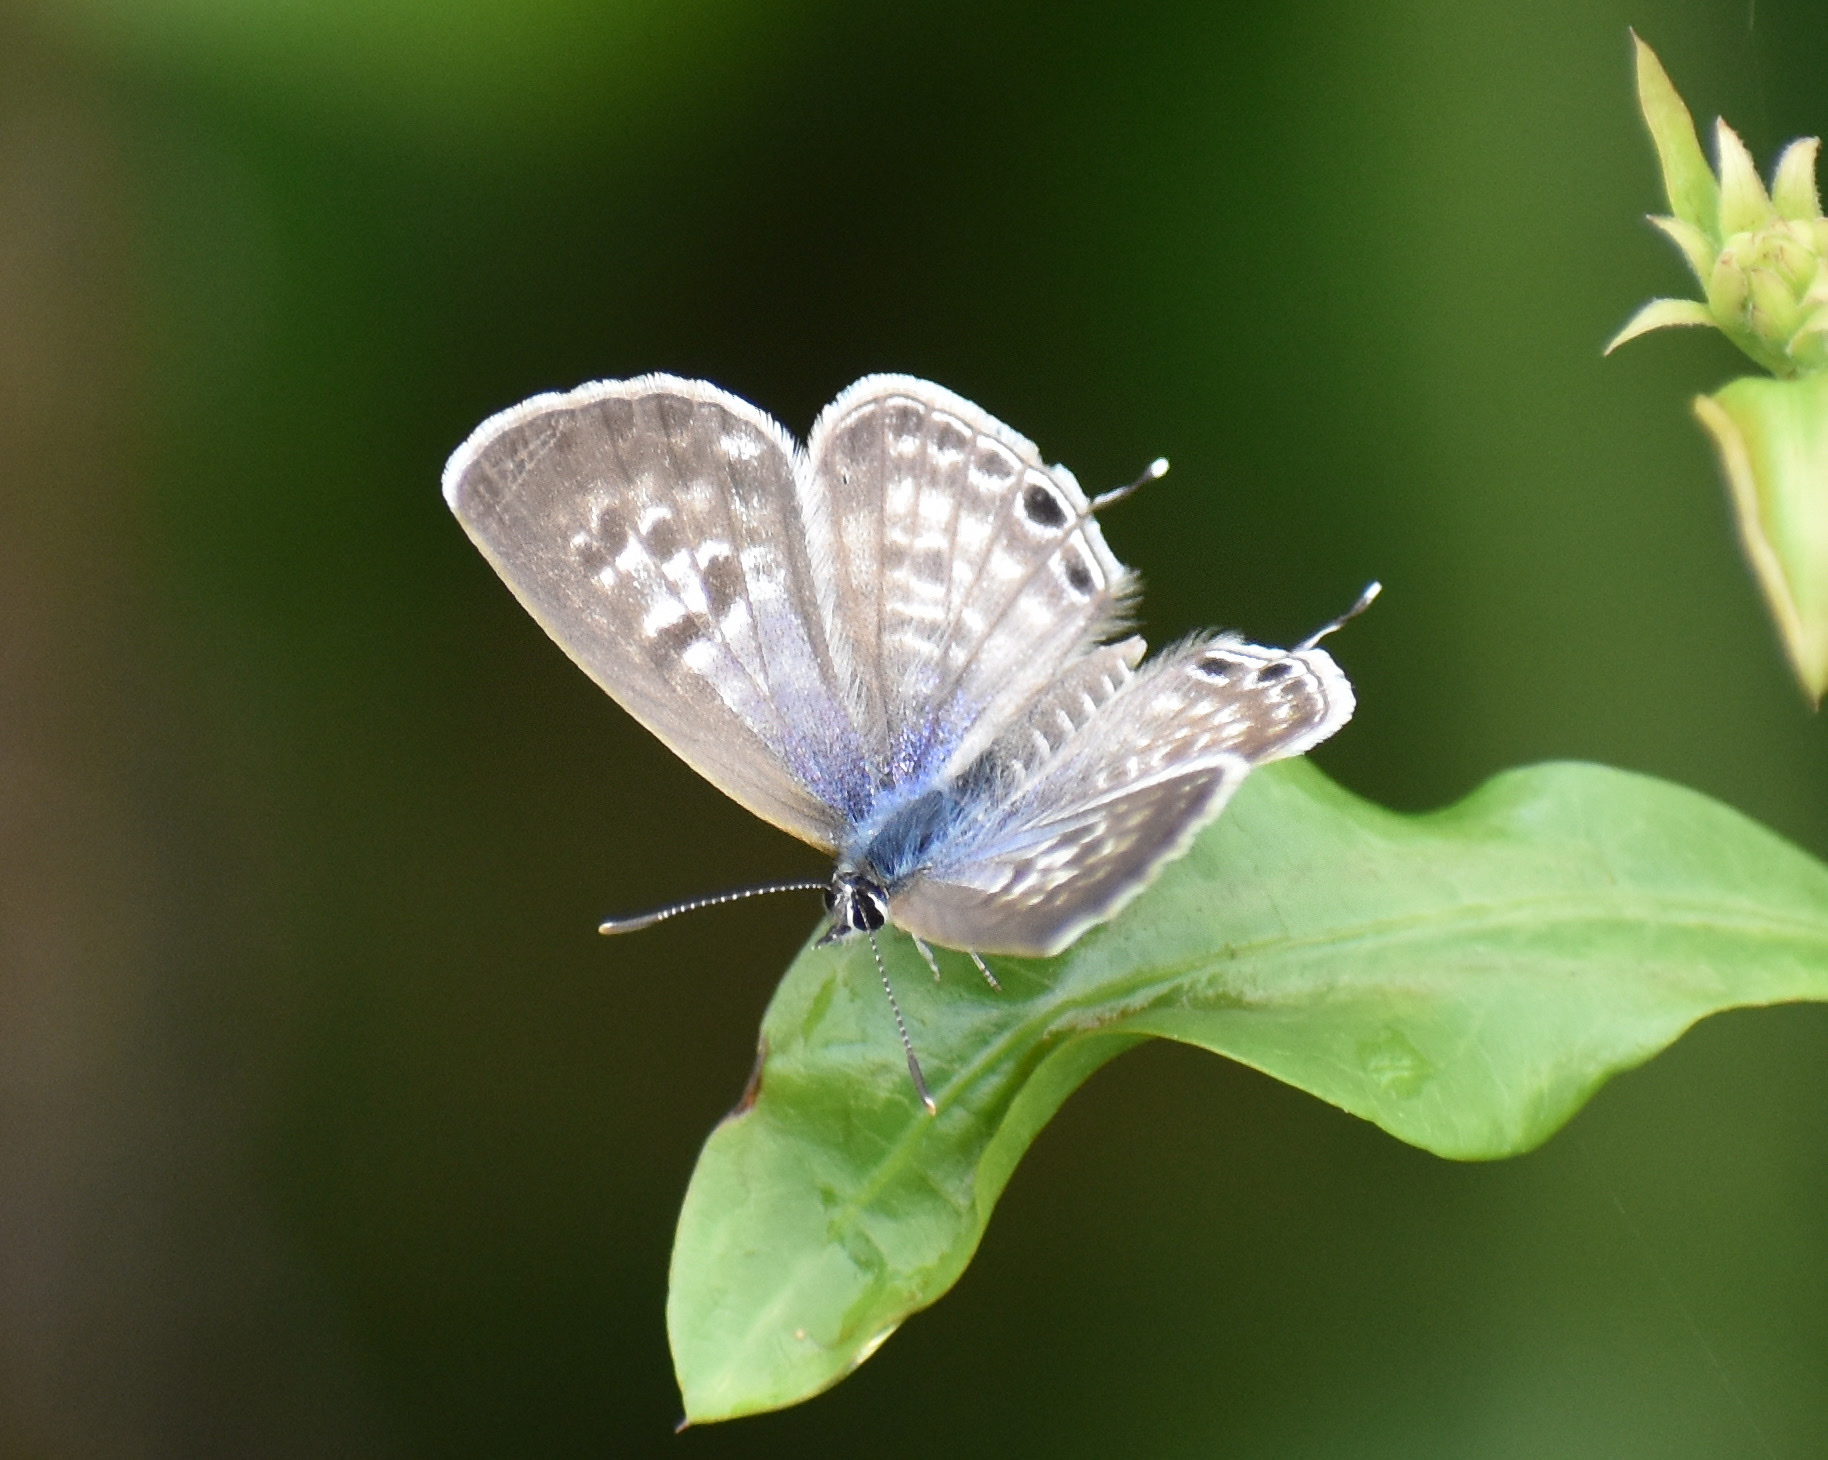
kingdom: Animalia
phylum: Arthropoda
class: Insecta
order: Lepidoptera
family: Lycaenidae
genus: Leptotes
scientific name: Leptotes
